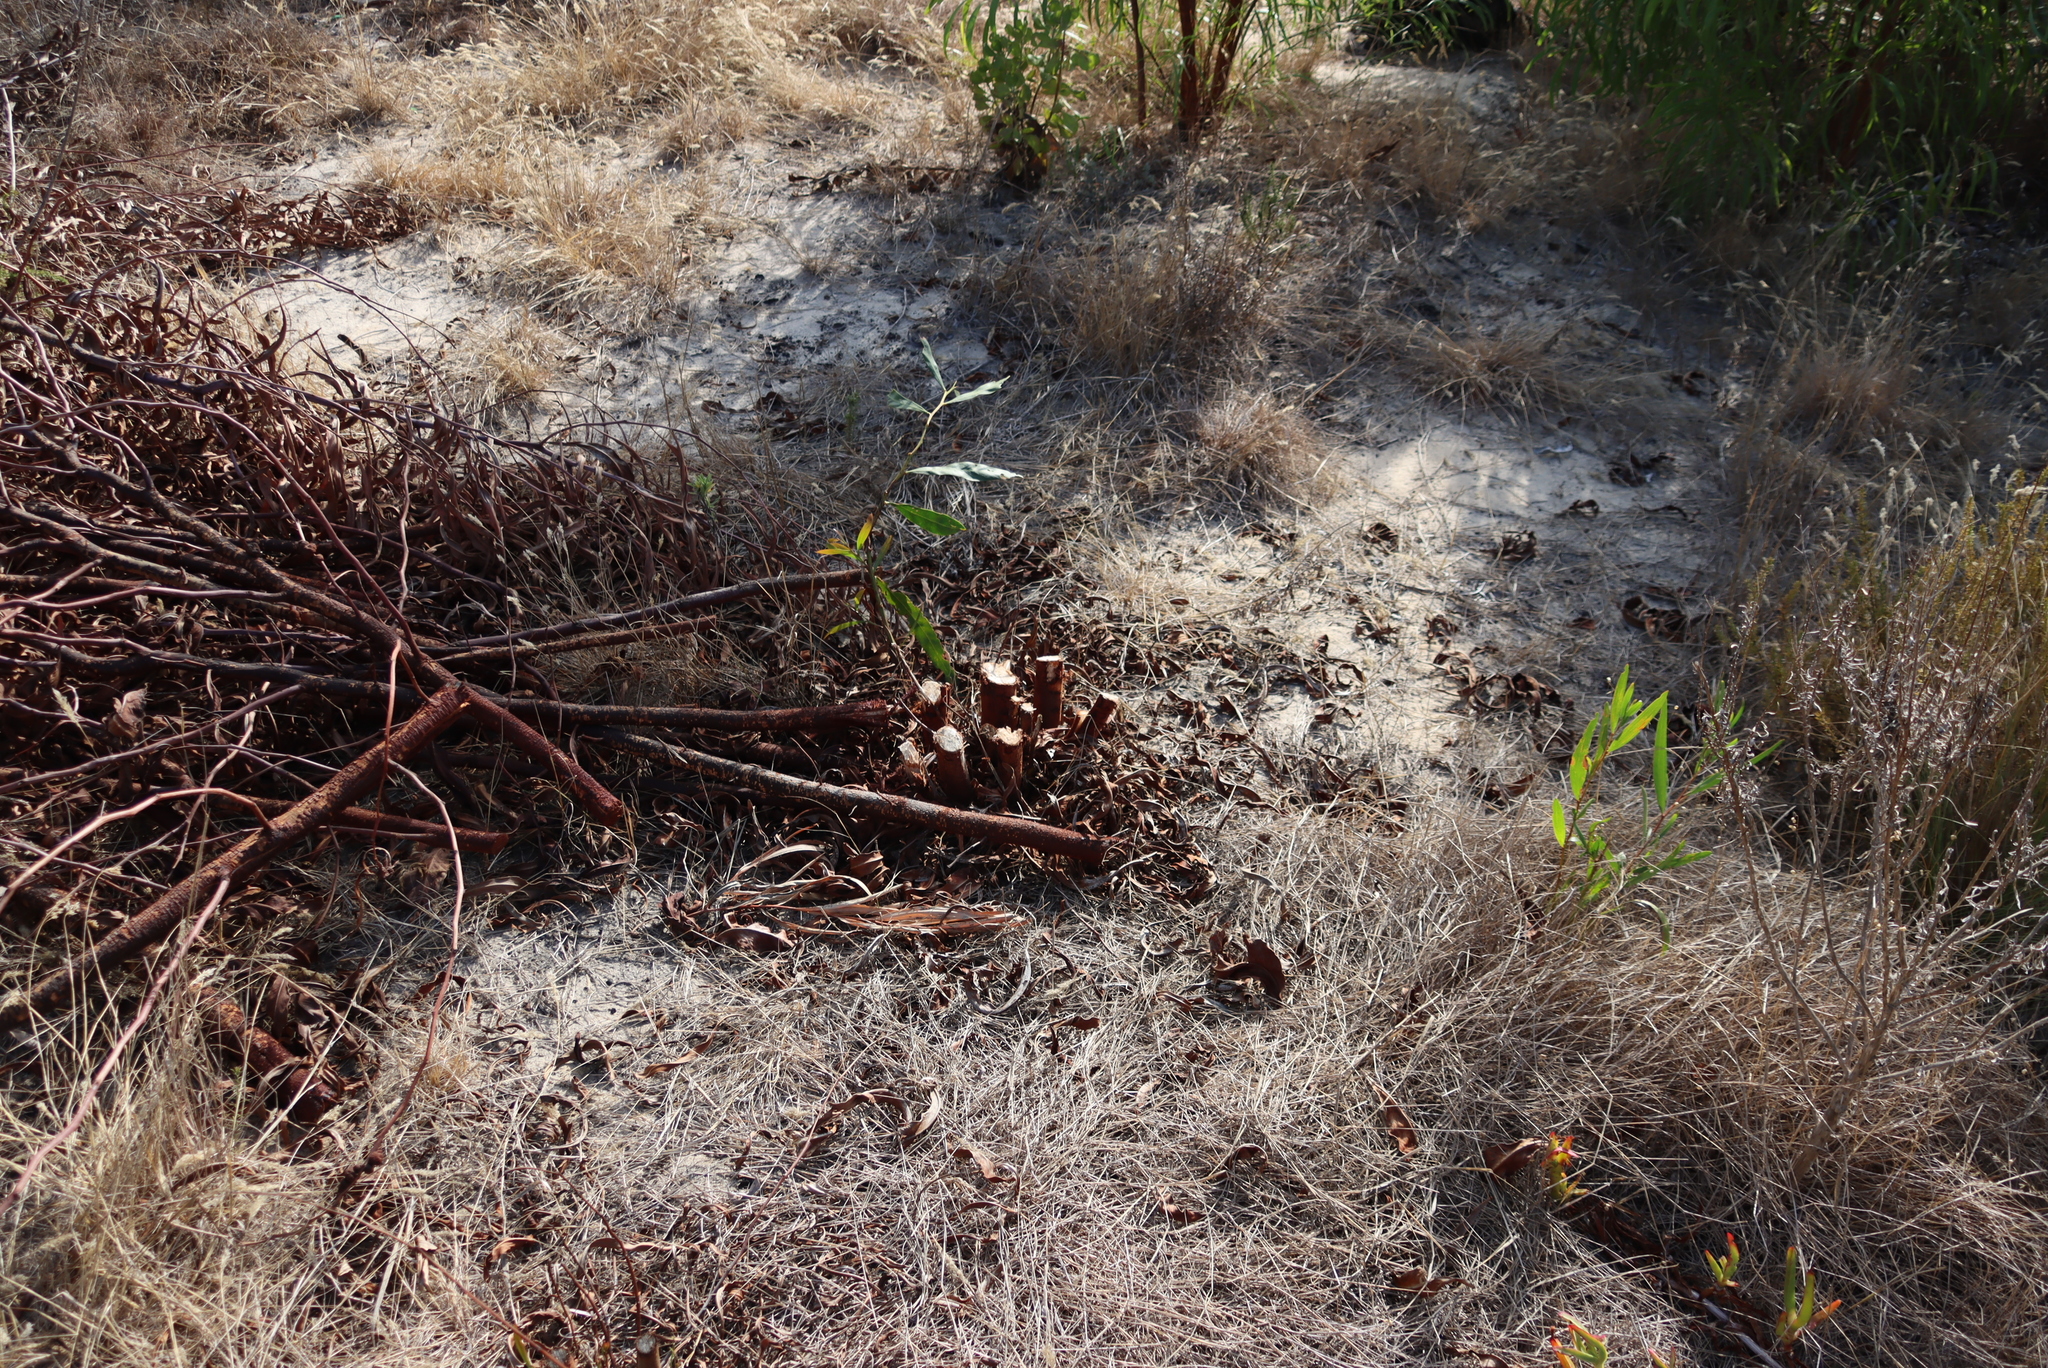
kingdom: Plantae
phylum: Tracheophyta
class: Magnoliopsida
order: Fabales
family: Fabaceae
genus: Acacia
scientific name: Acacia saligna
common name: Orange wattle
